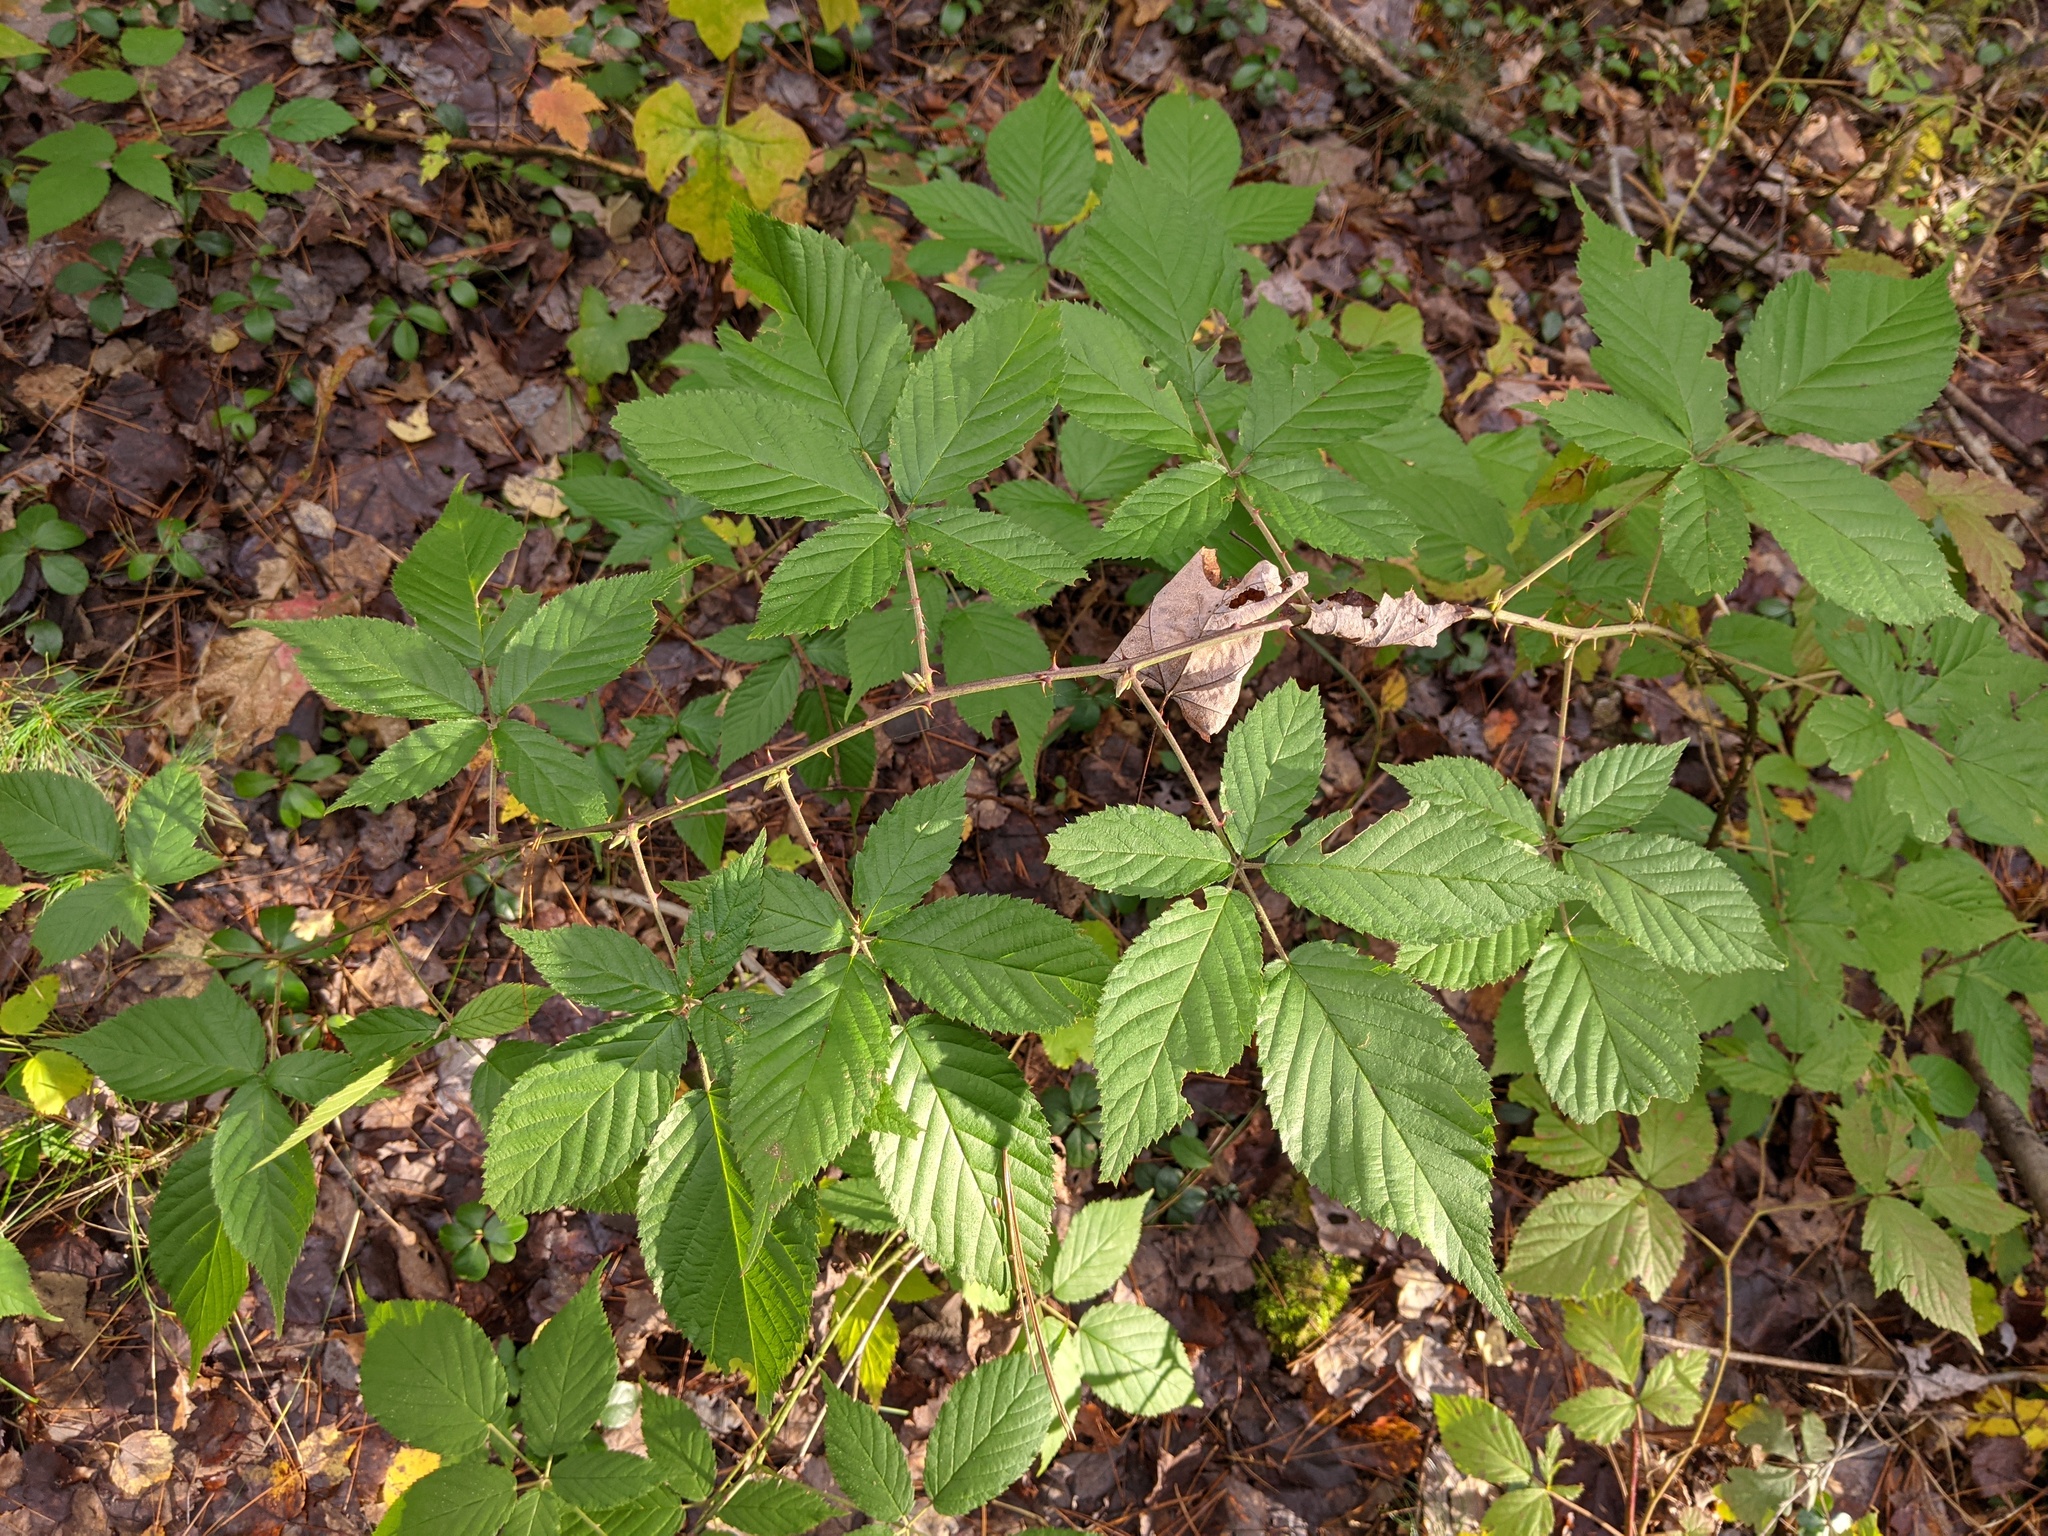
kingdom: Plantae
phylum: Tracheophyta
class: Magnoliopsida
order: Rosales
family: Rosaceae
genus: Rubus
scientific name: Rubus allegheniensis
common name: Allegheny blackberry
